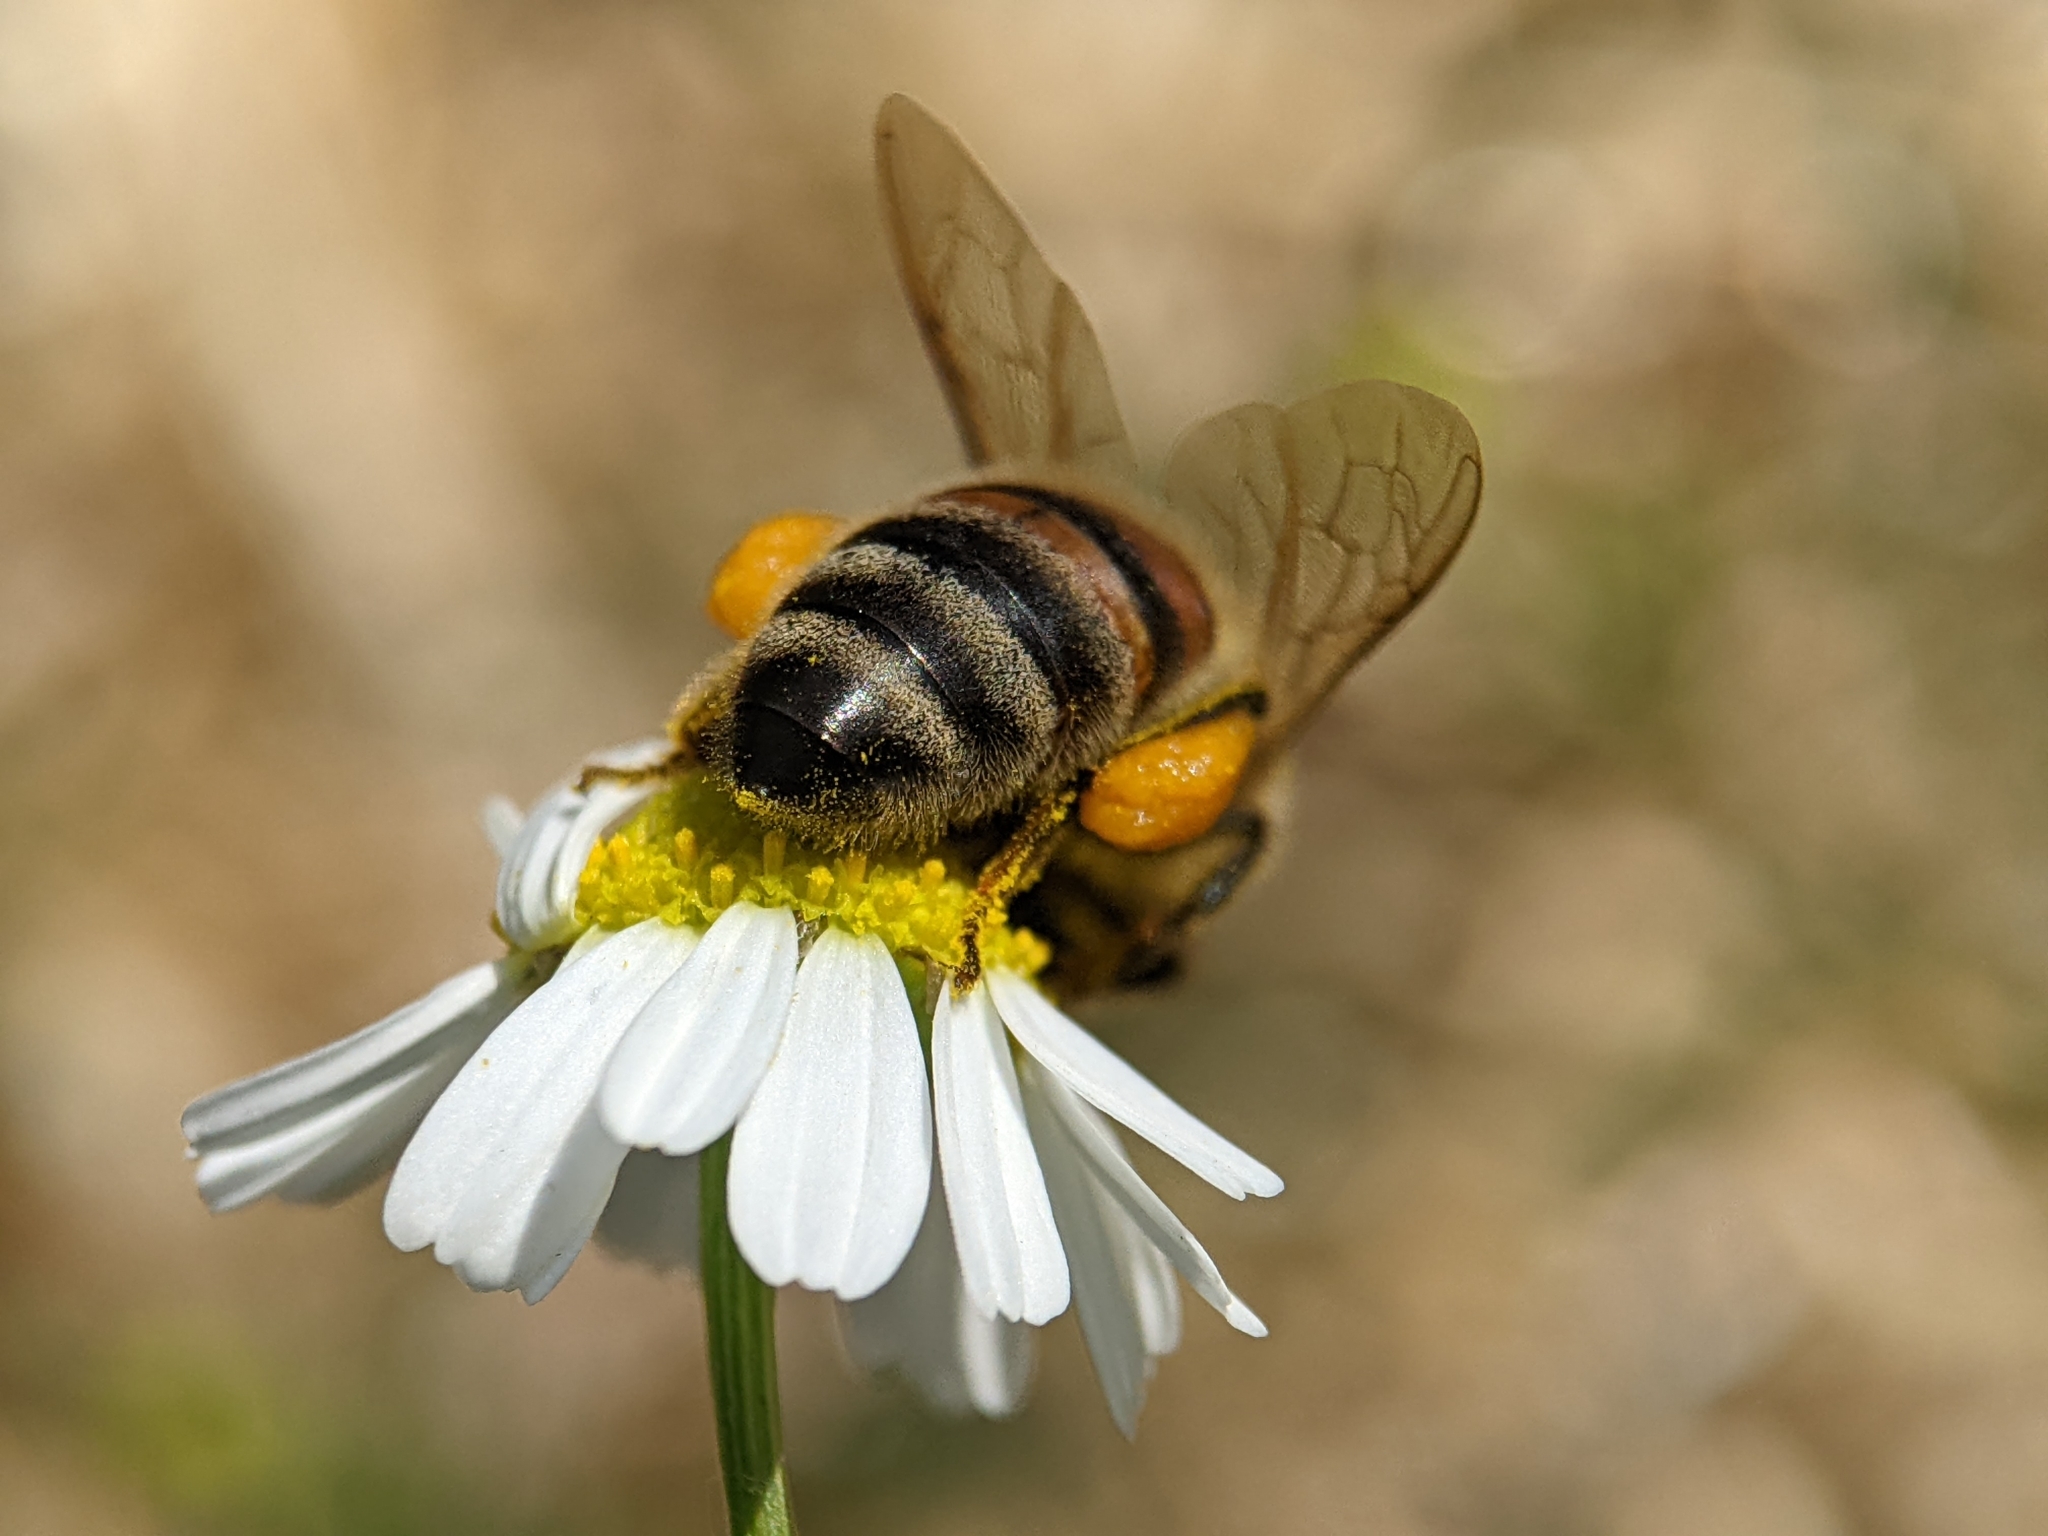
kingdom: Animalia
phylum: Arthropoda
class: Insecta
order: Hymenoptera
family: Apidae
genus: Apis
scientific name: Apis mellifera
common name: Honey bee
